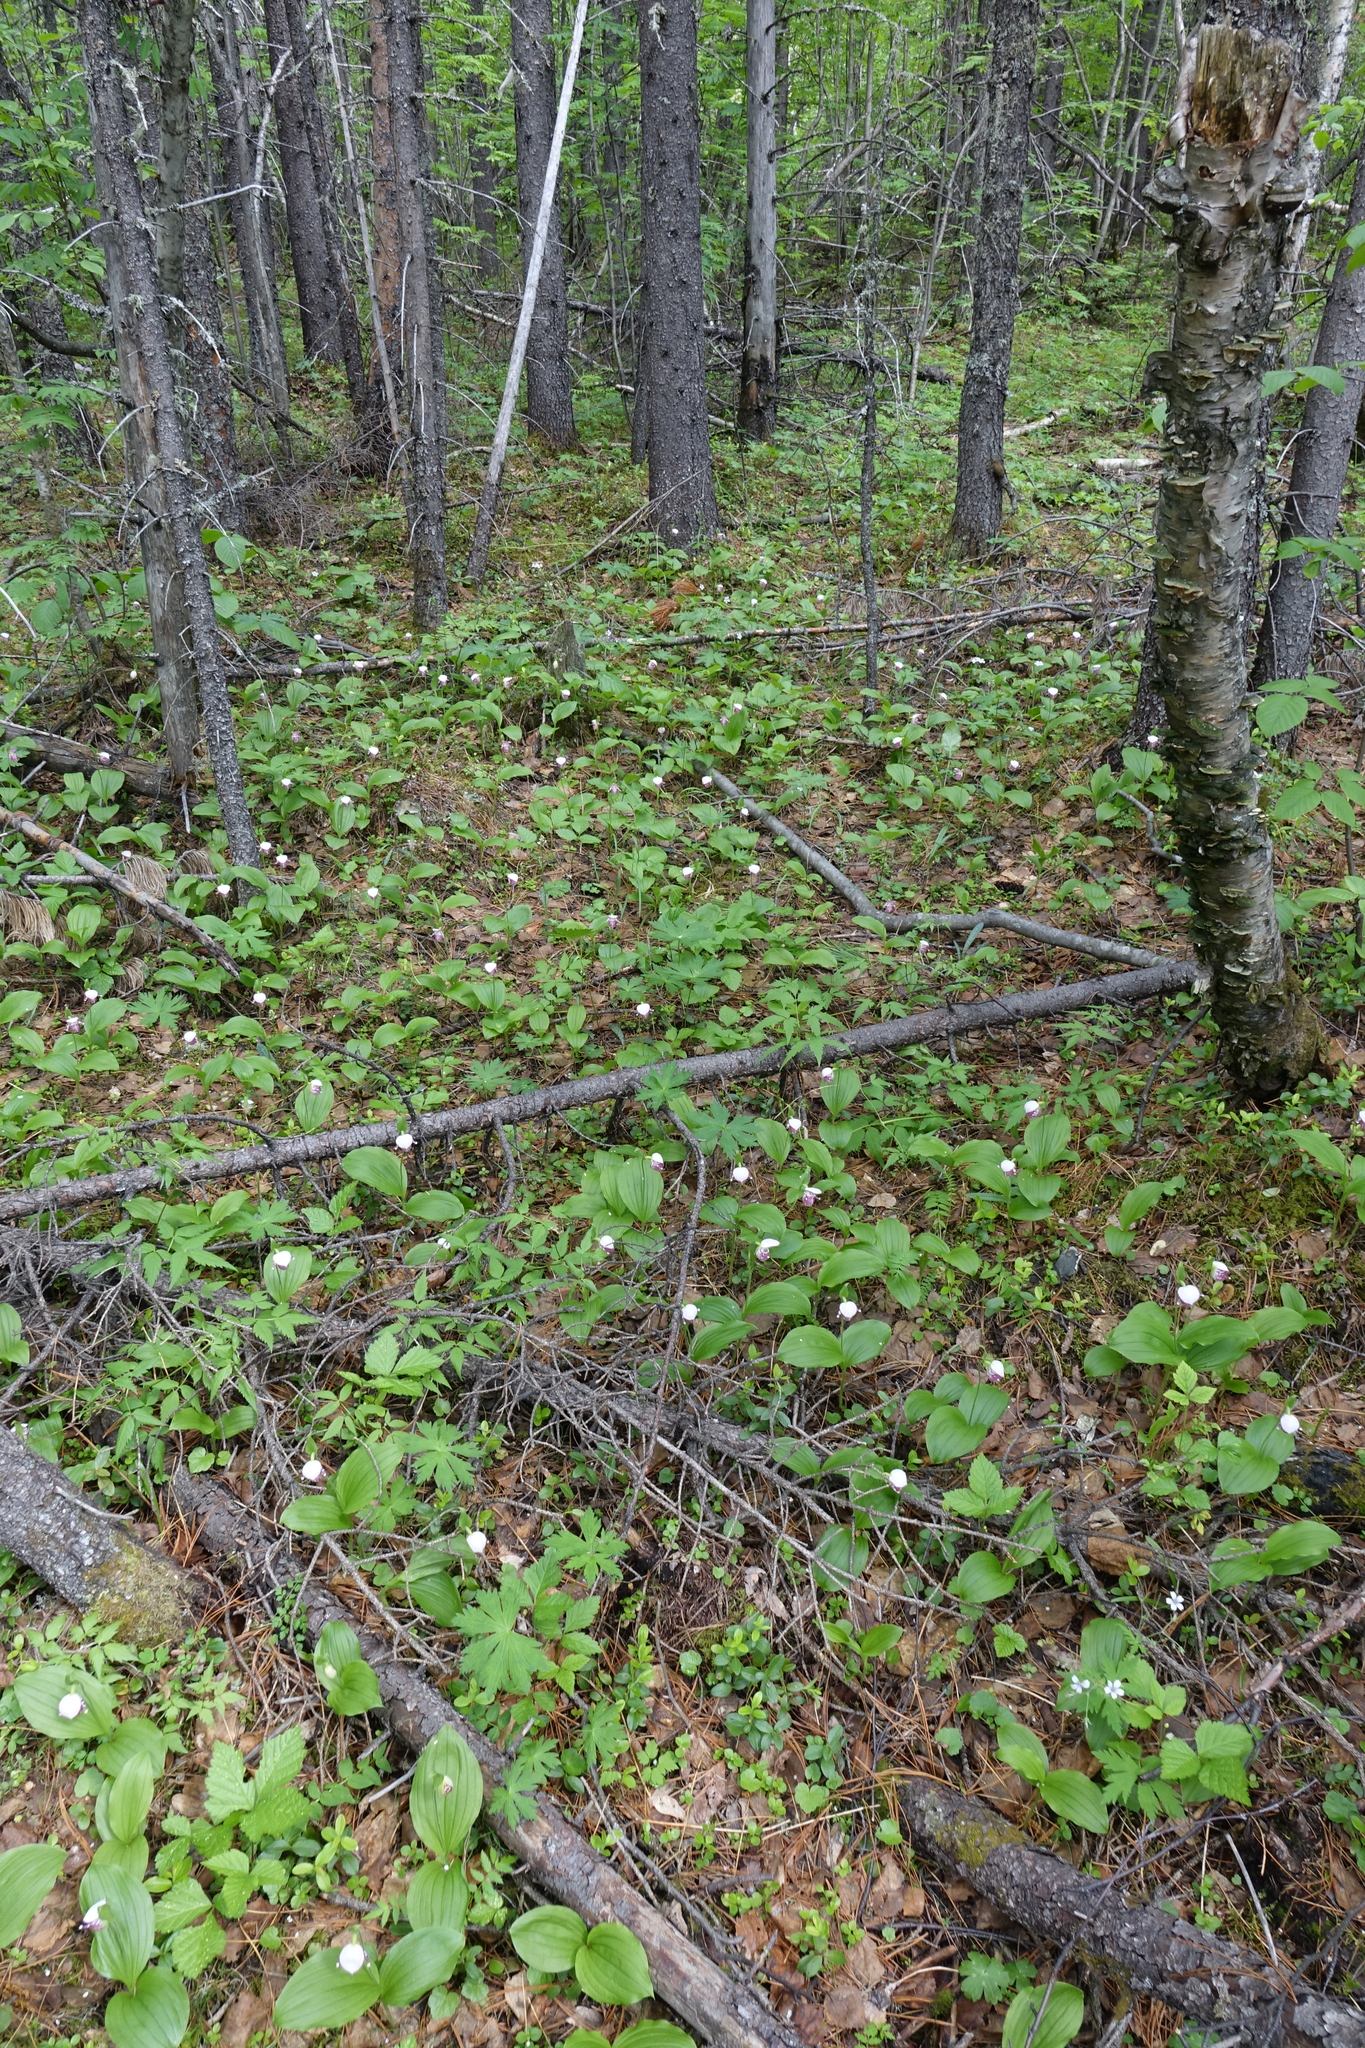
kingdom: Plantae
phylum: Tracheophyta
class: Liliopsida
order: Asparagales
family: Orchidaceae
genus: Cypripedium
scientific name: Cypripedium guttatum
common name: Pink lady slipper
